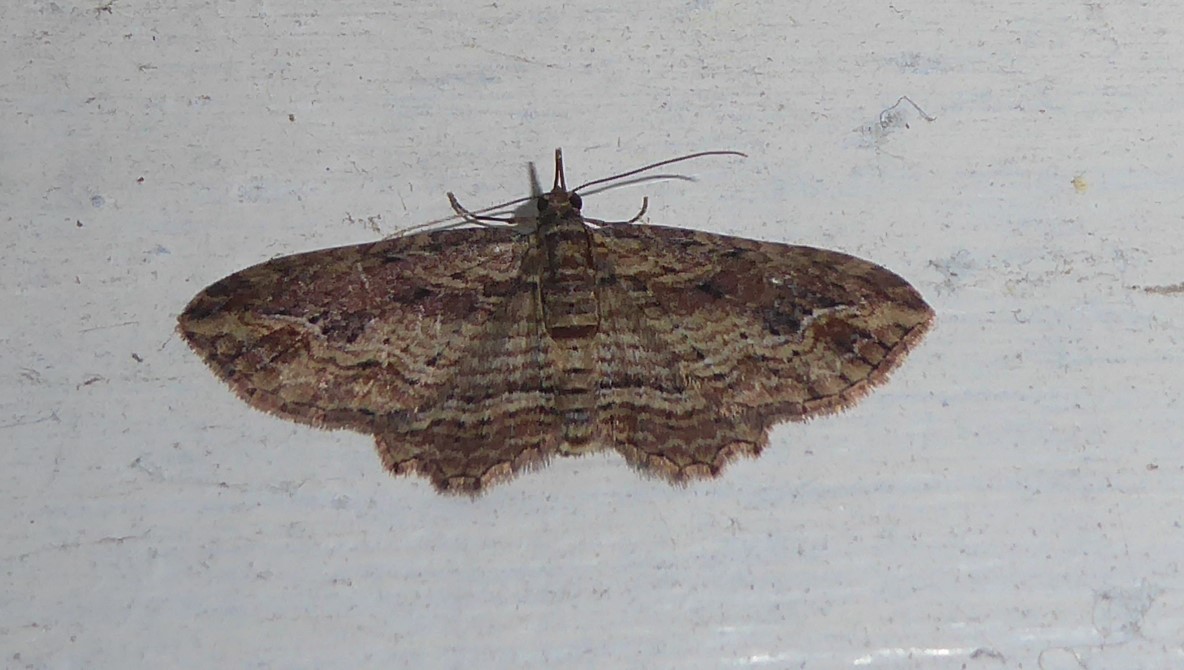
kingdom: Animalia
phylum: Arthropoda
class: Insecta
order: Lepidoptera
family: Geometridae
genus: Chloroclystis
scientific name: Chloroclystis filata
